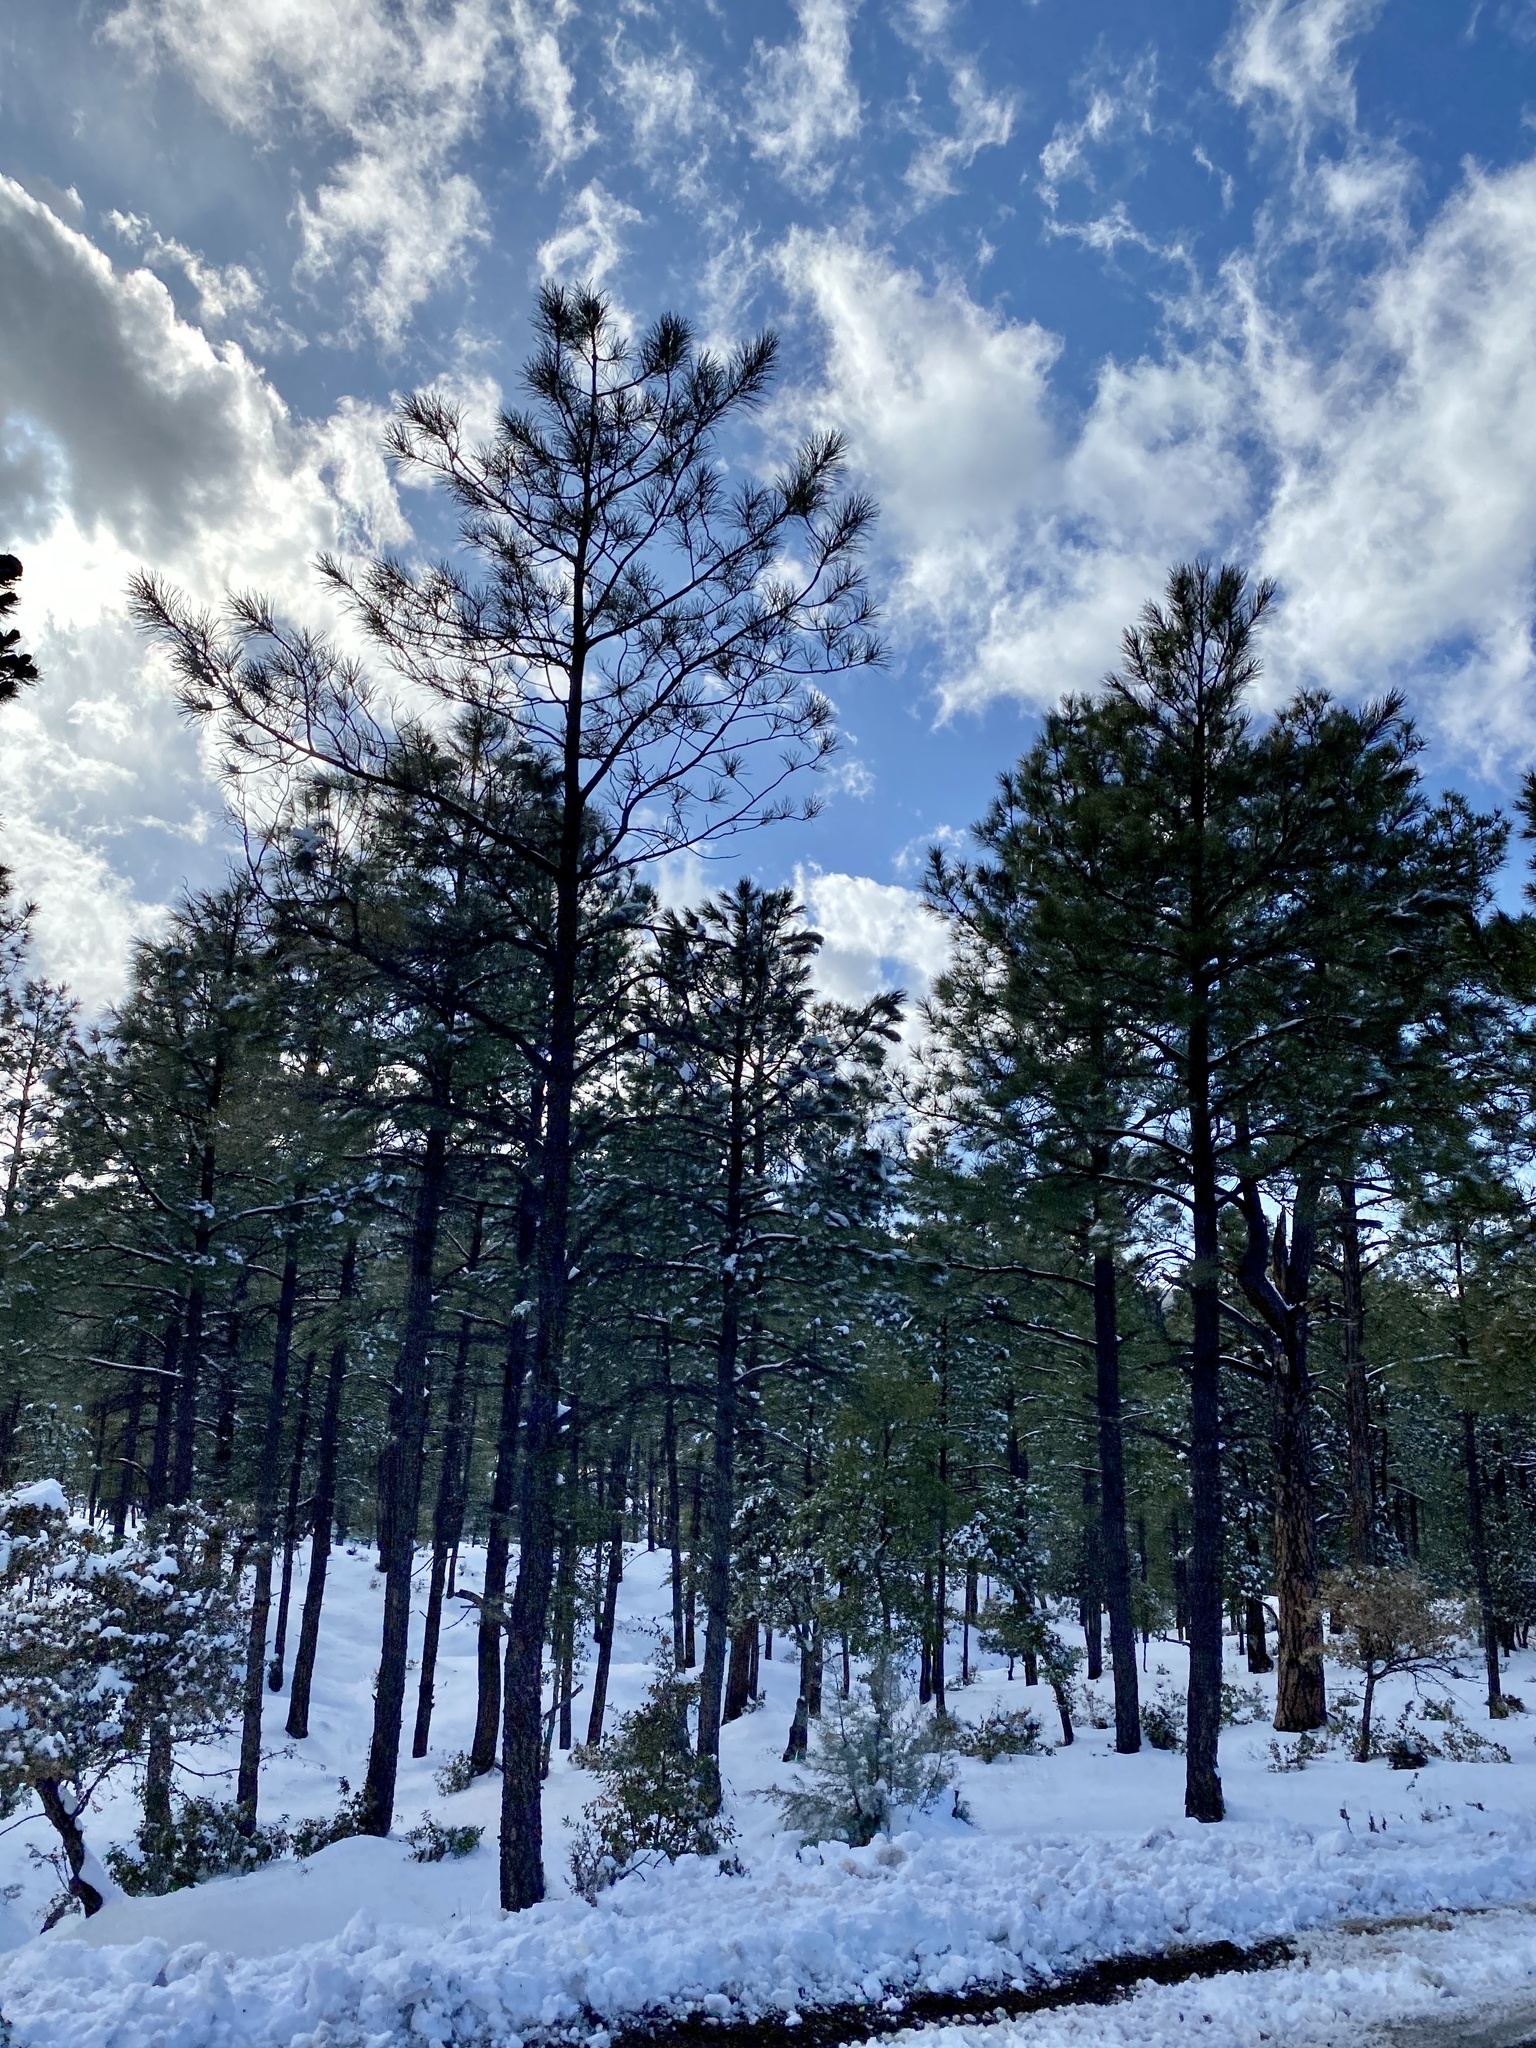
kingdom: Plantae
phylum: Tracheophyta
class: Pinopsida
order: Pinales
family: Pinaceae
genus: Pinus
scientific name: Pinus ponderosa
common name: Western yellow-pine
